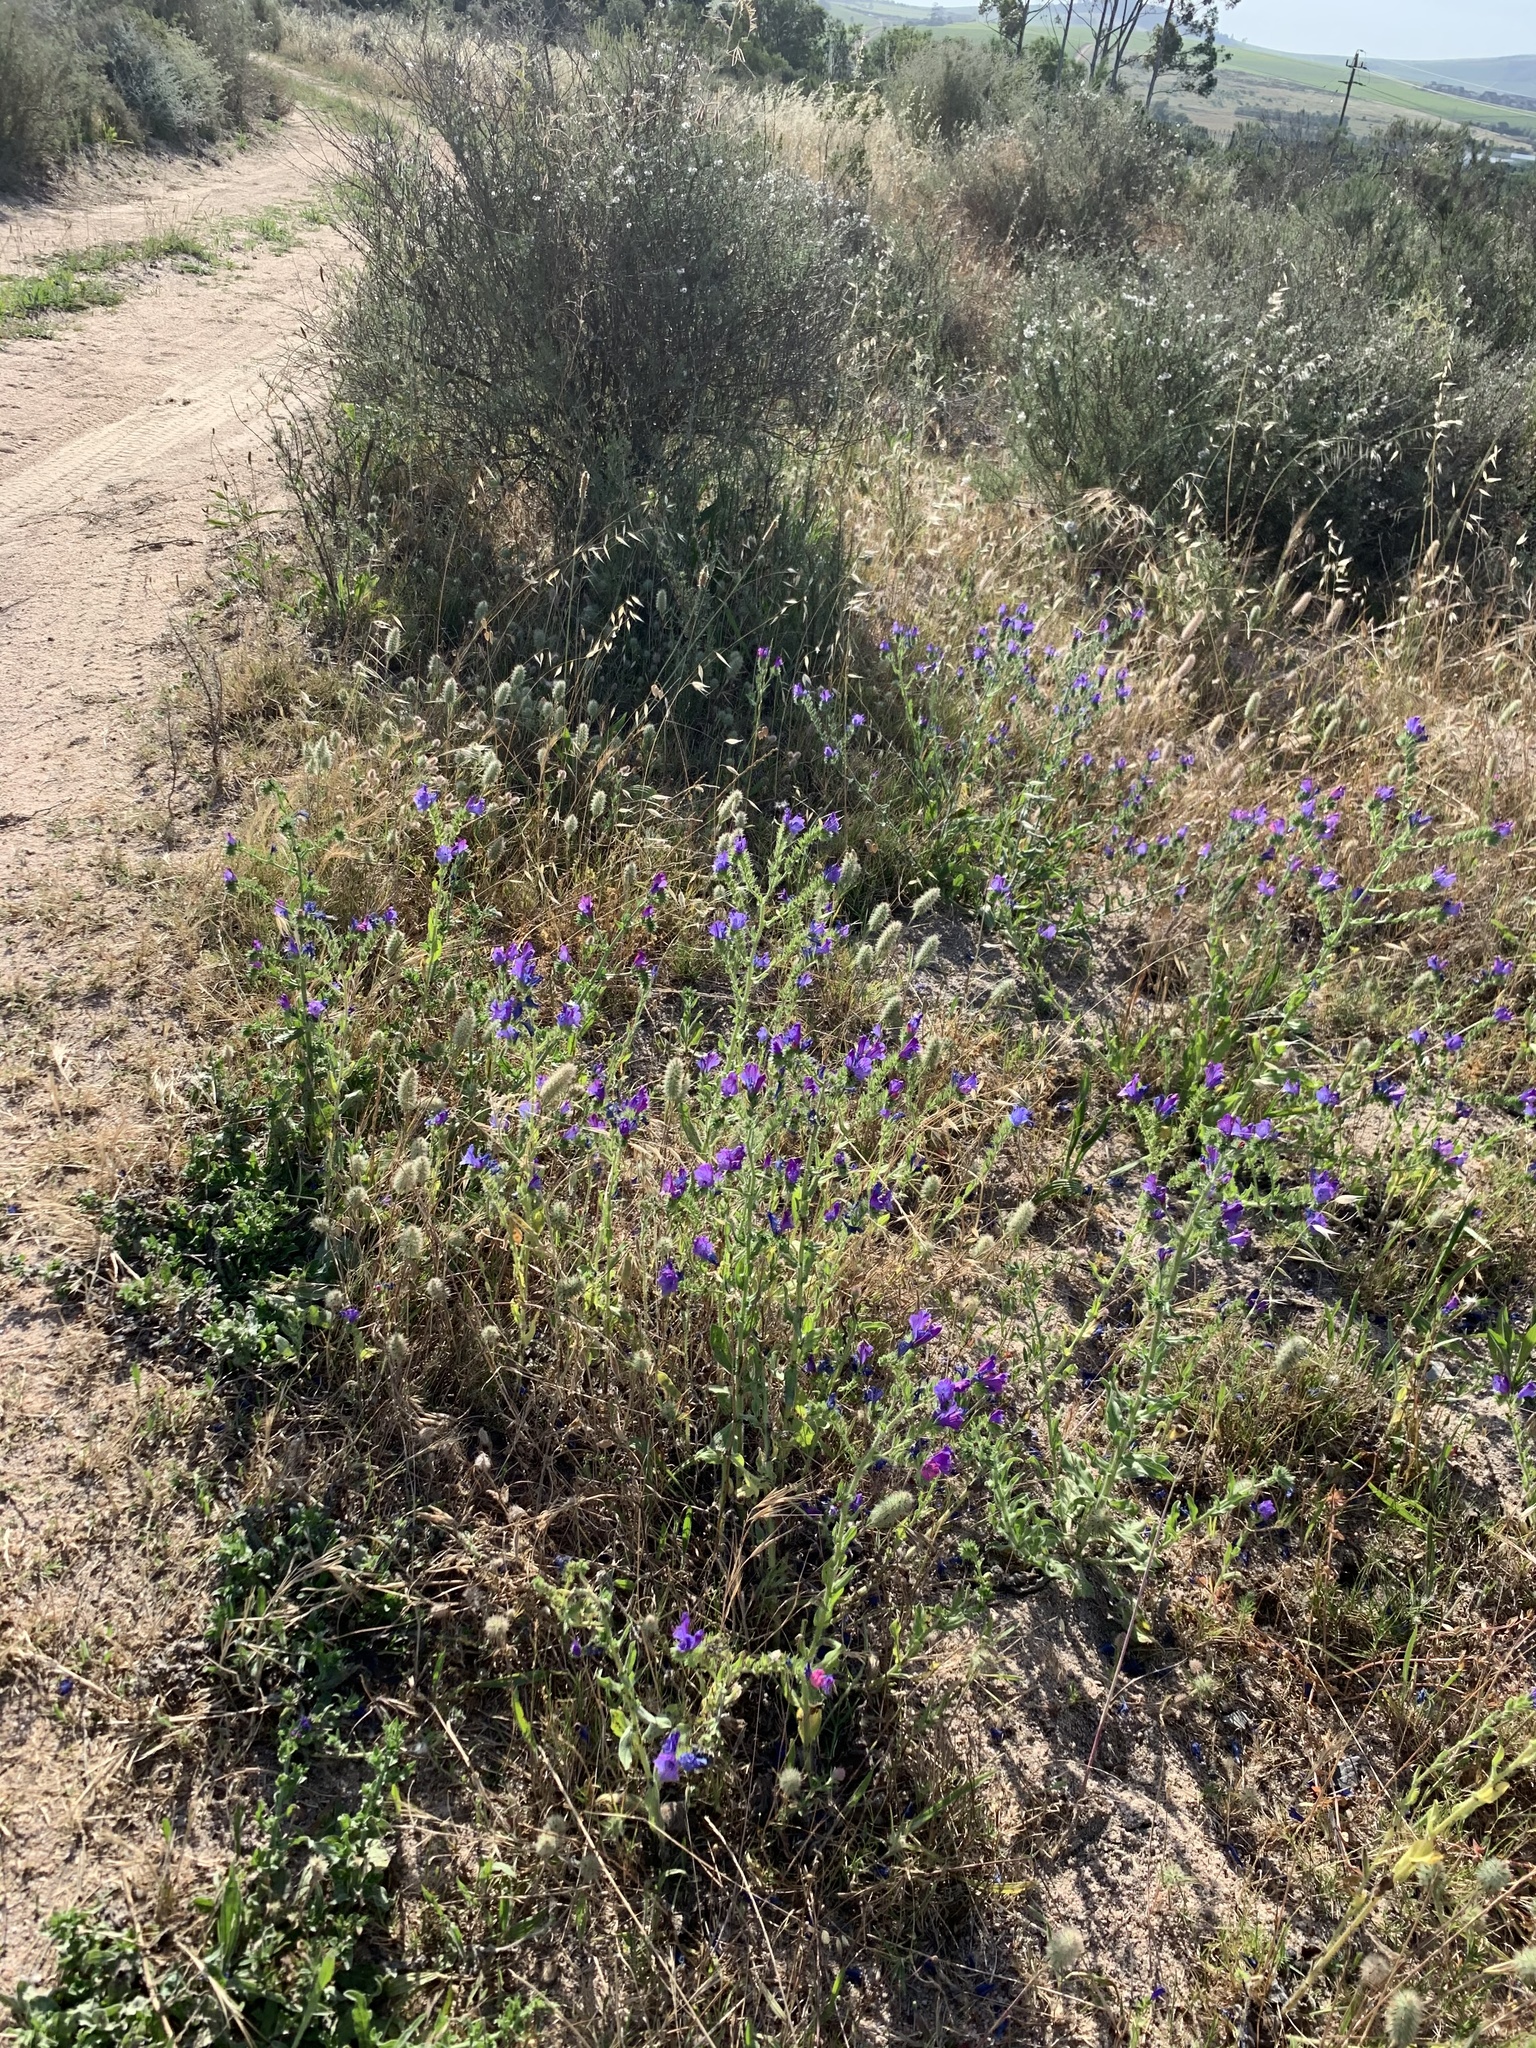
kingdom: Plantae
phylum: Tracheophyta
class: Magnoliopsida
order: Boraginales
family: Boraginaceae
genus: Echium
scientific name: Echium plantagineum
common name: Purple viper's-bugloss
